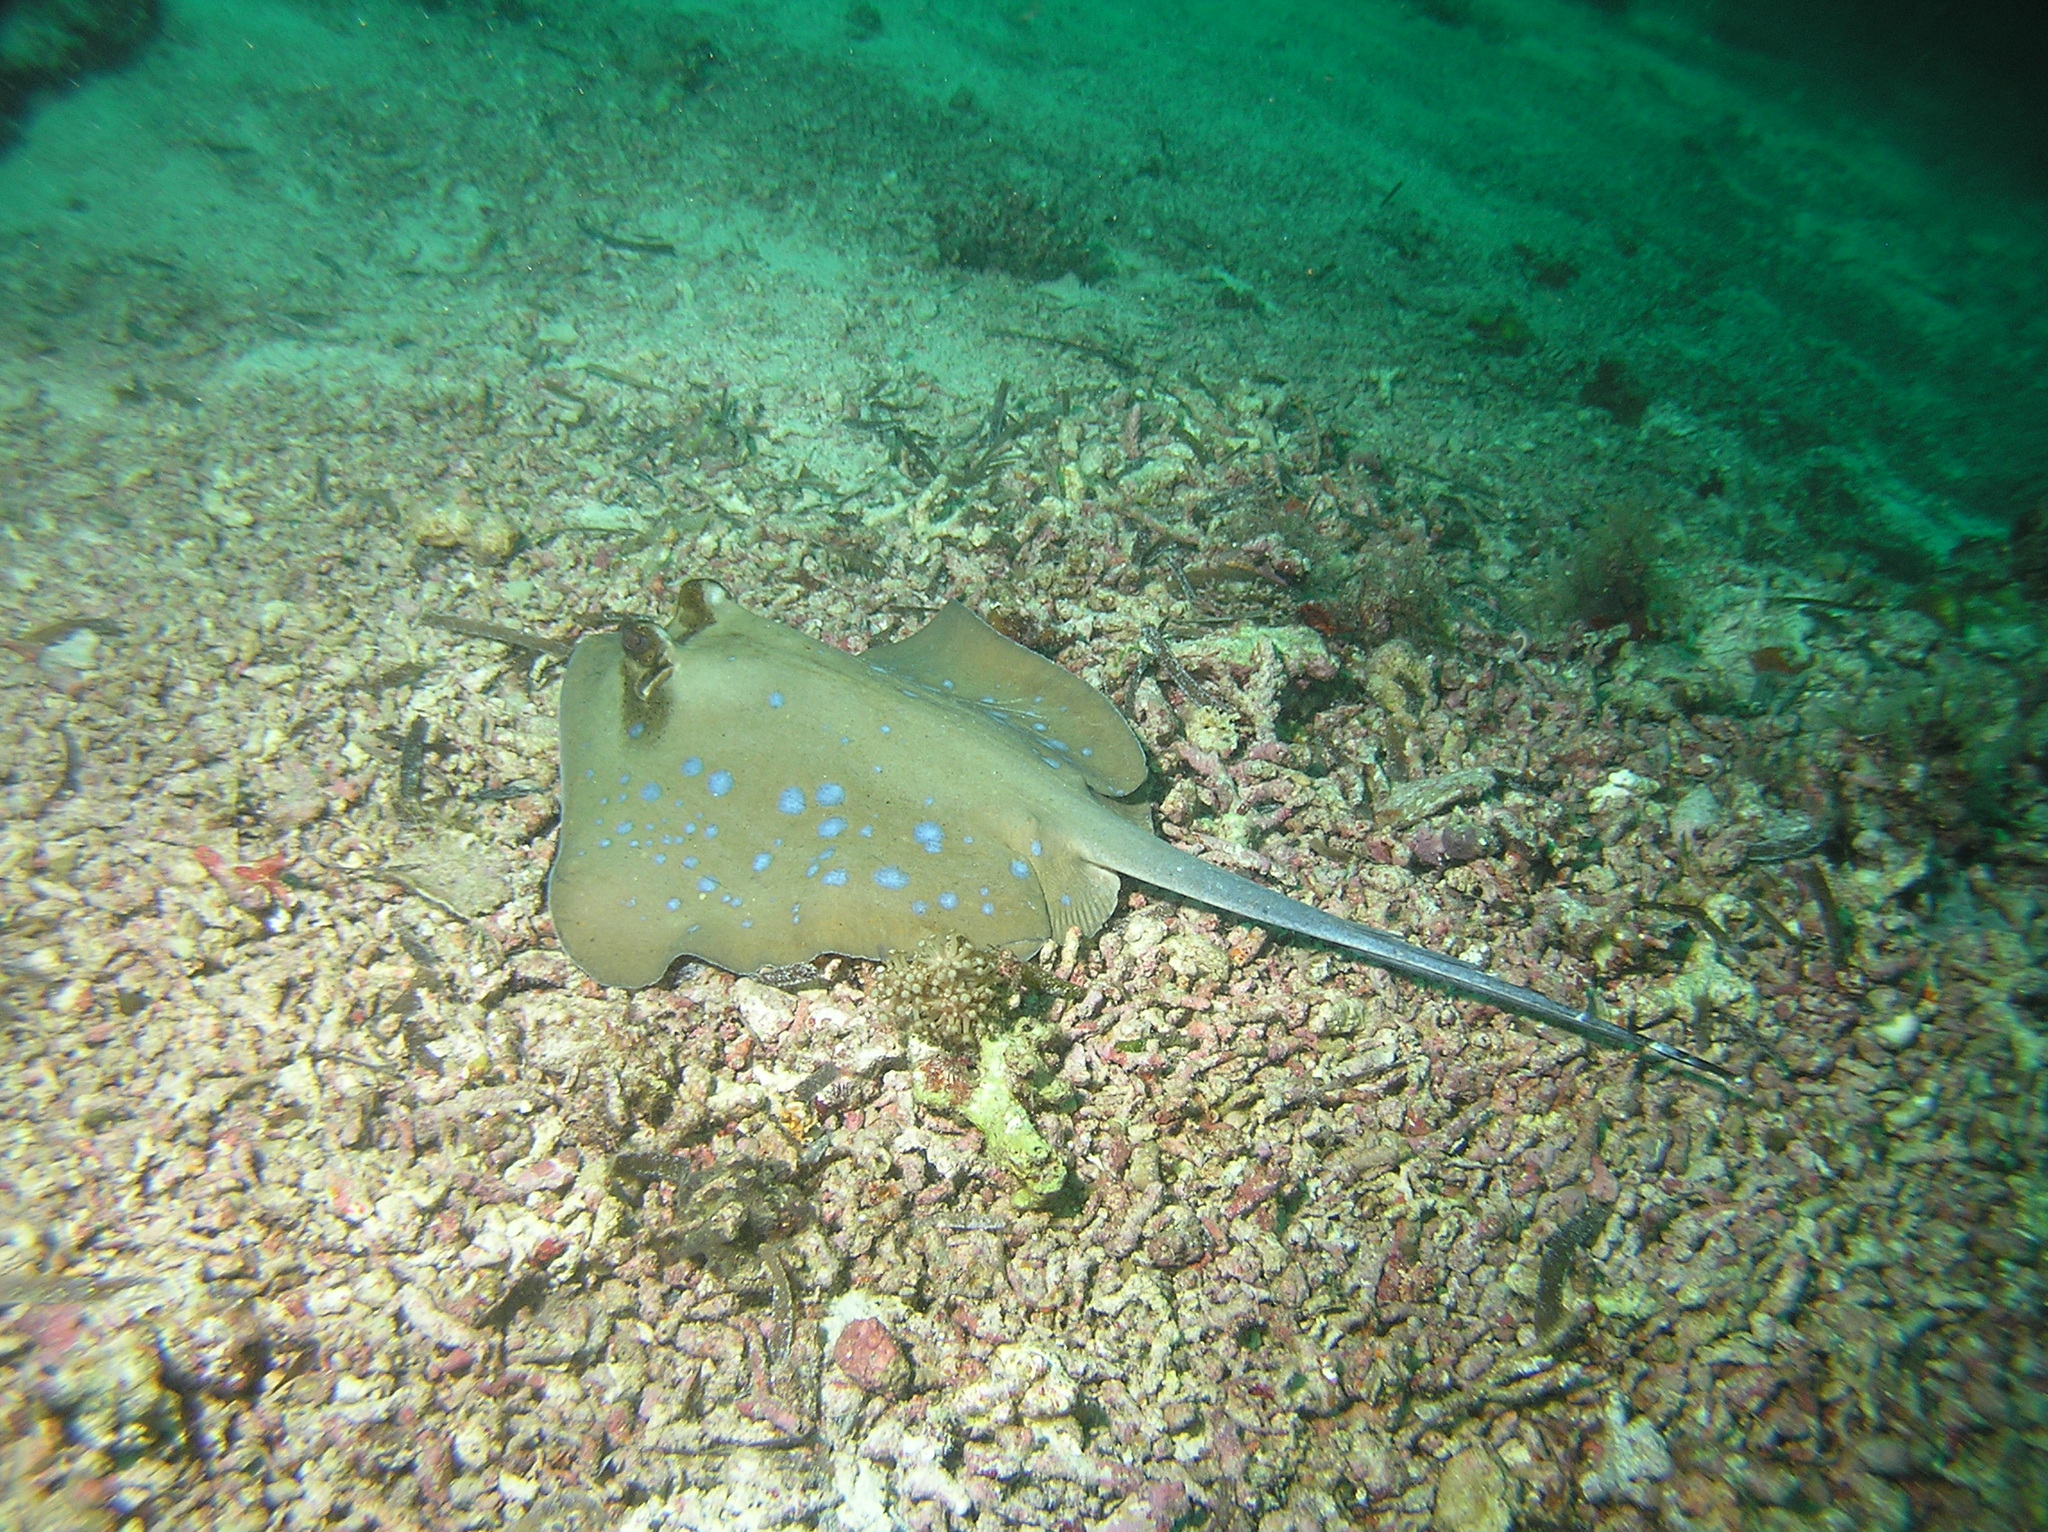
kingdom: Animalia
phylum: Chordata
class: Elasmobranchii
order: Myliobatiformes
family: Dasyatidae
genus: Neotrygon
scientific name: Neotrygon orientale
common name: Oriental bluespotted maskray
